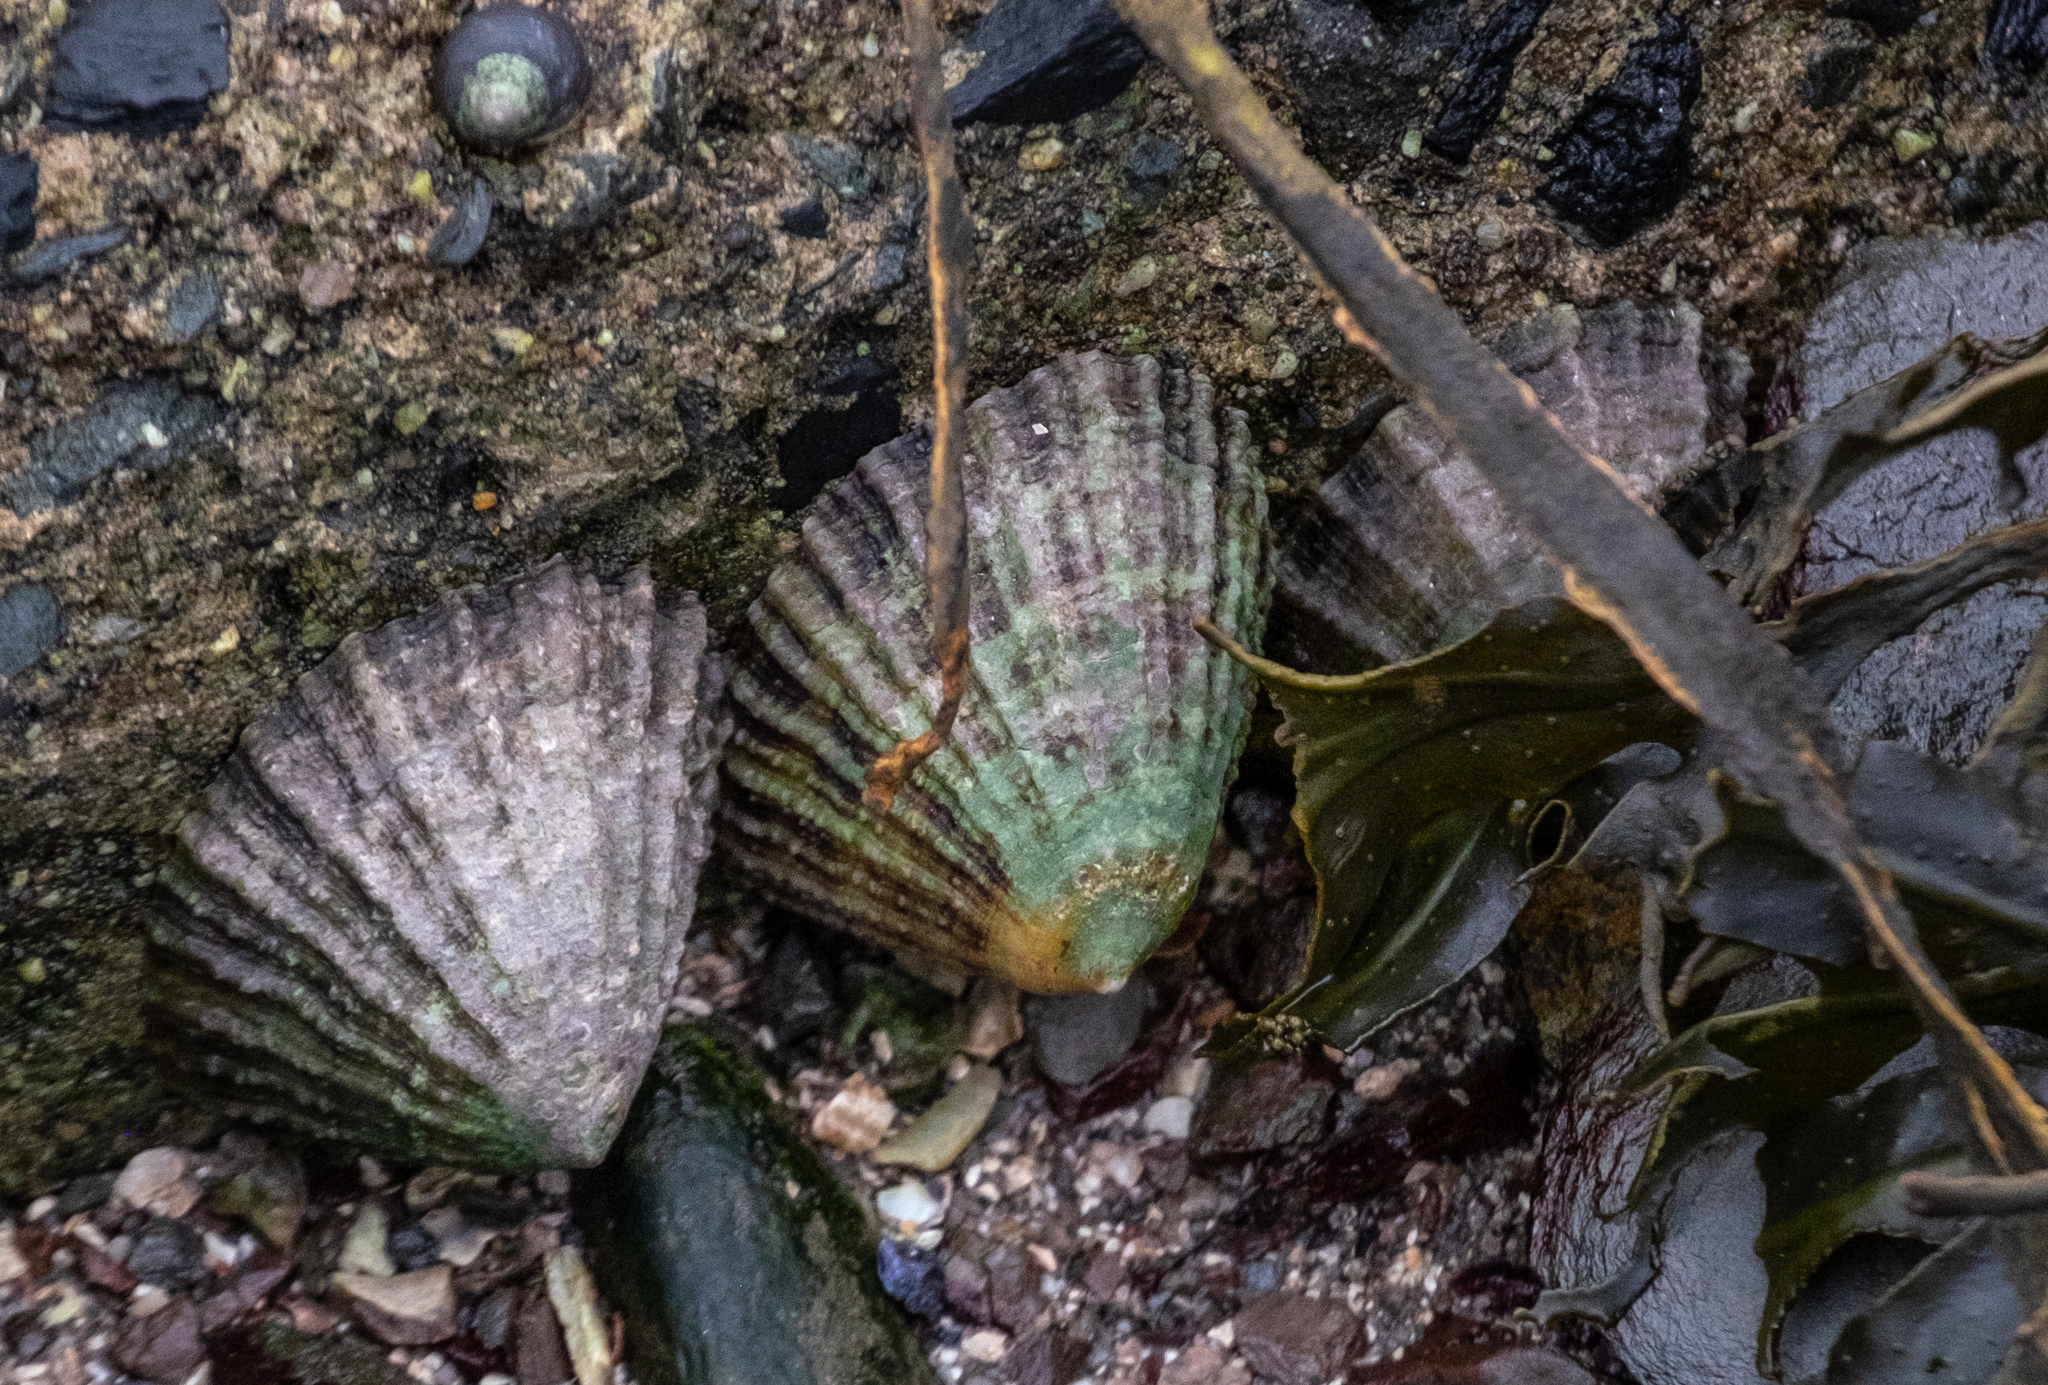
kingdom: Animalia
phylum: Mollusca
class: Gastropoda
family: Patellidae
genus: Patella
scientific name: Patella vulgata
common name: Common limpet
